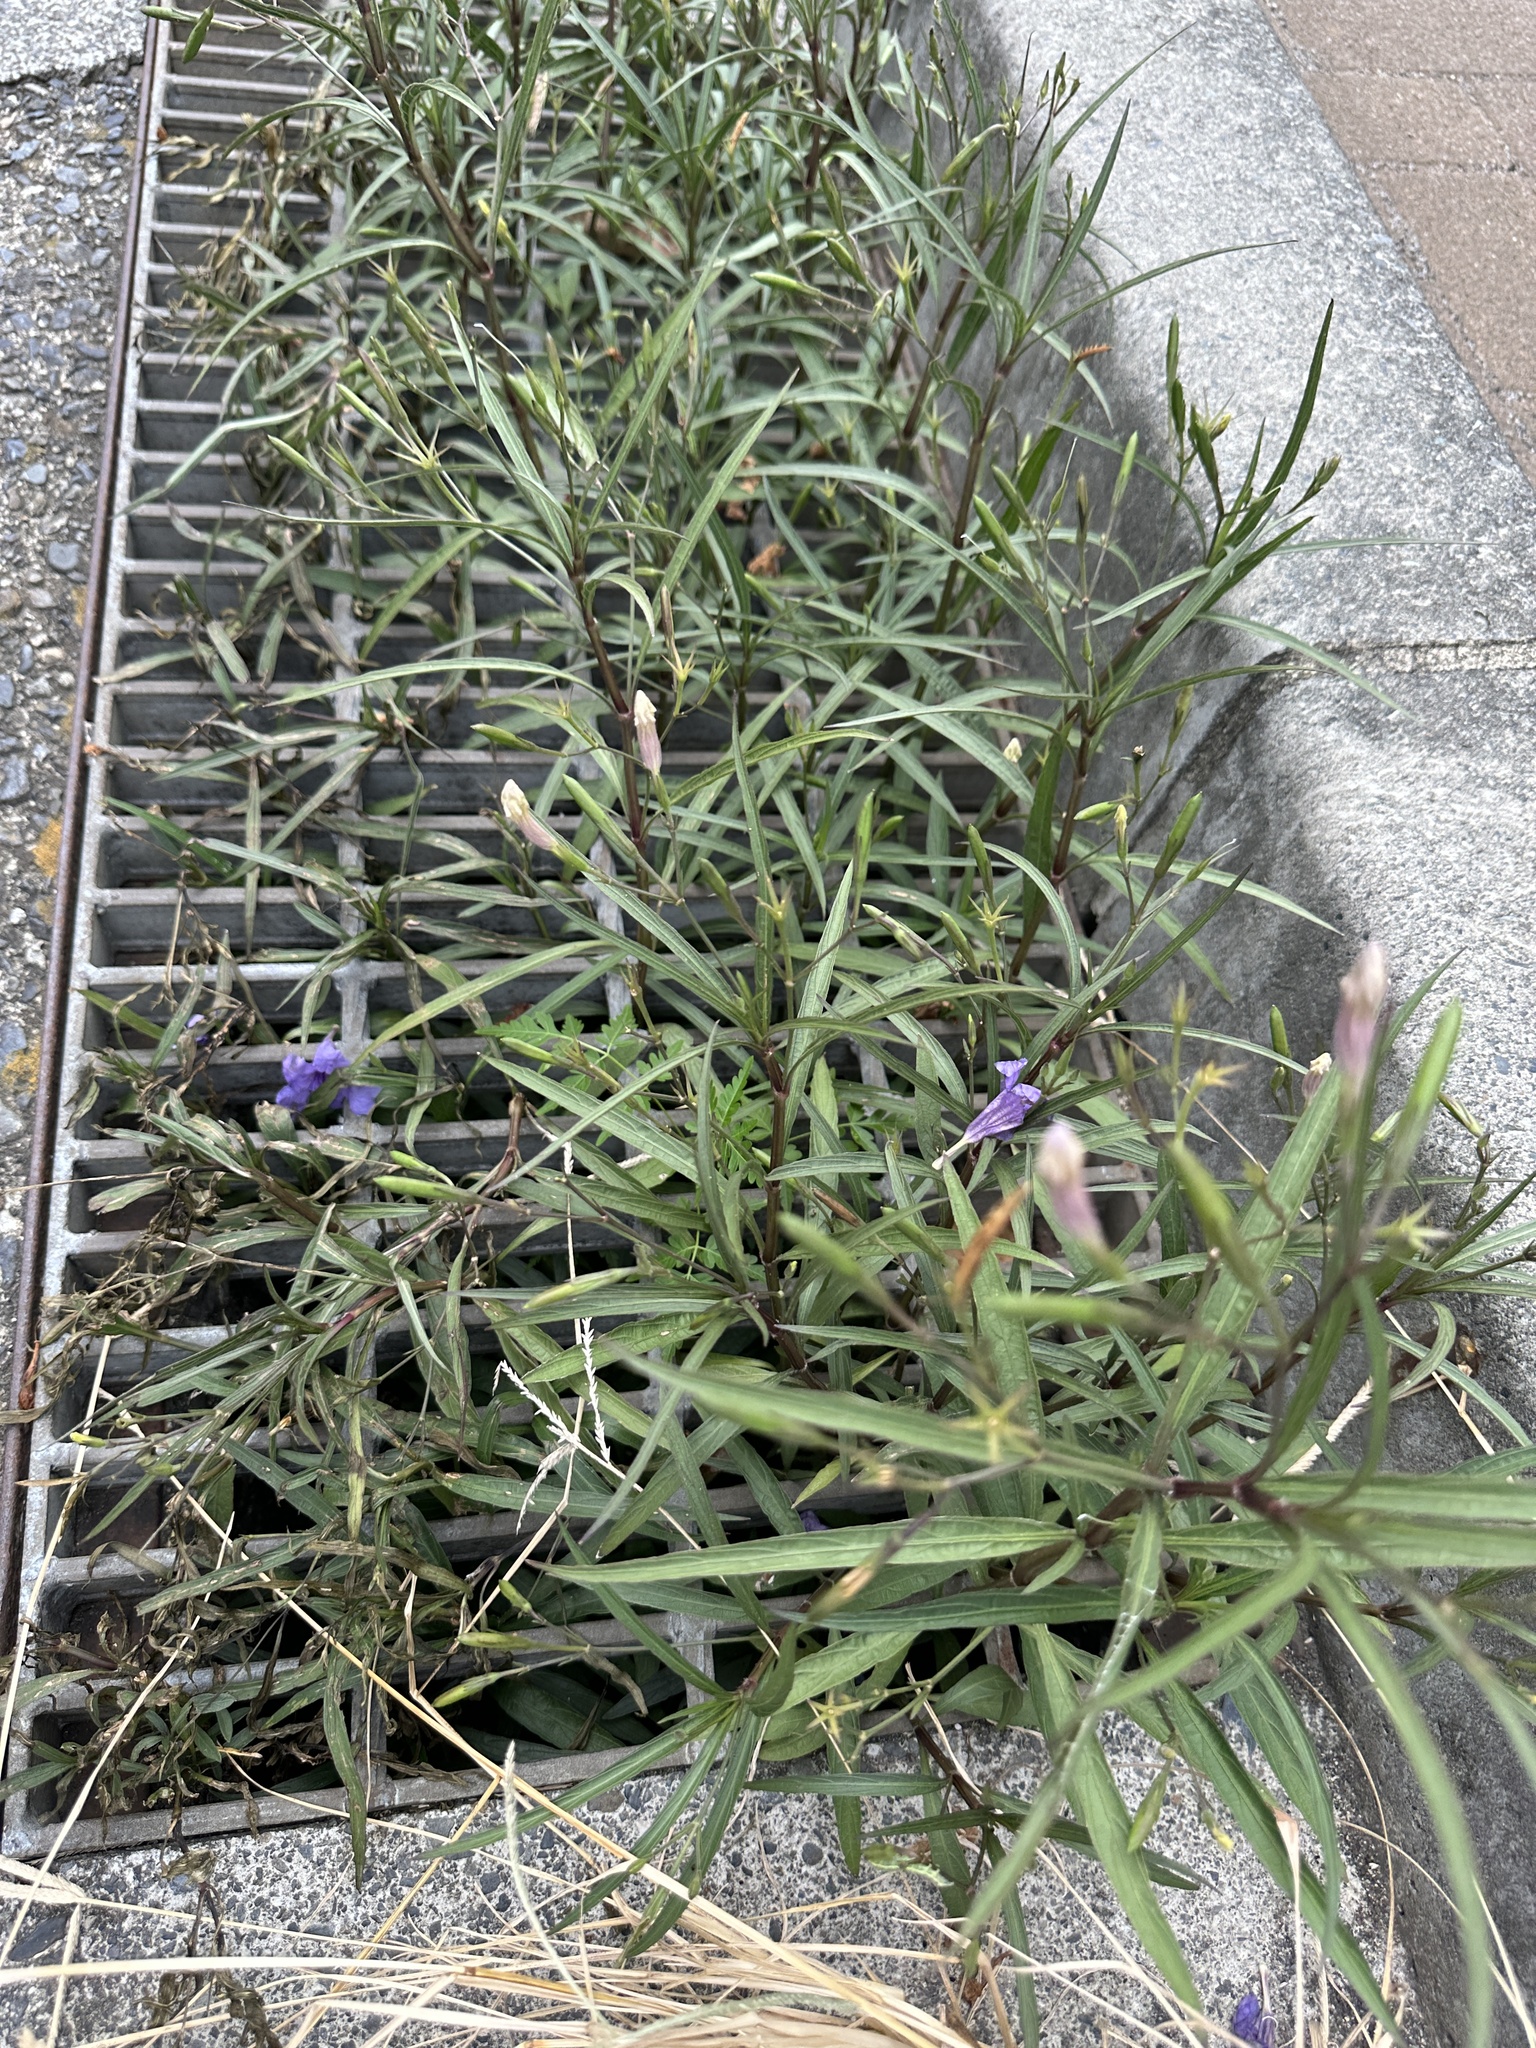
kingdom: Plantae
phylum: Tracheophyta
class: Magnoliopsida
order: Lamiales
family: Acanthaceae
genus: Ruellia
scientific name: Ruellia simplex
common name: Softseed wild petunia
